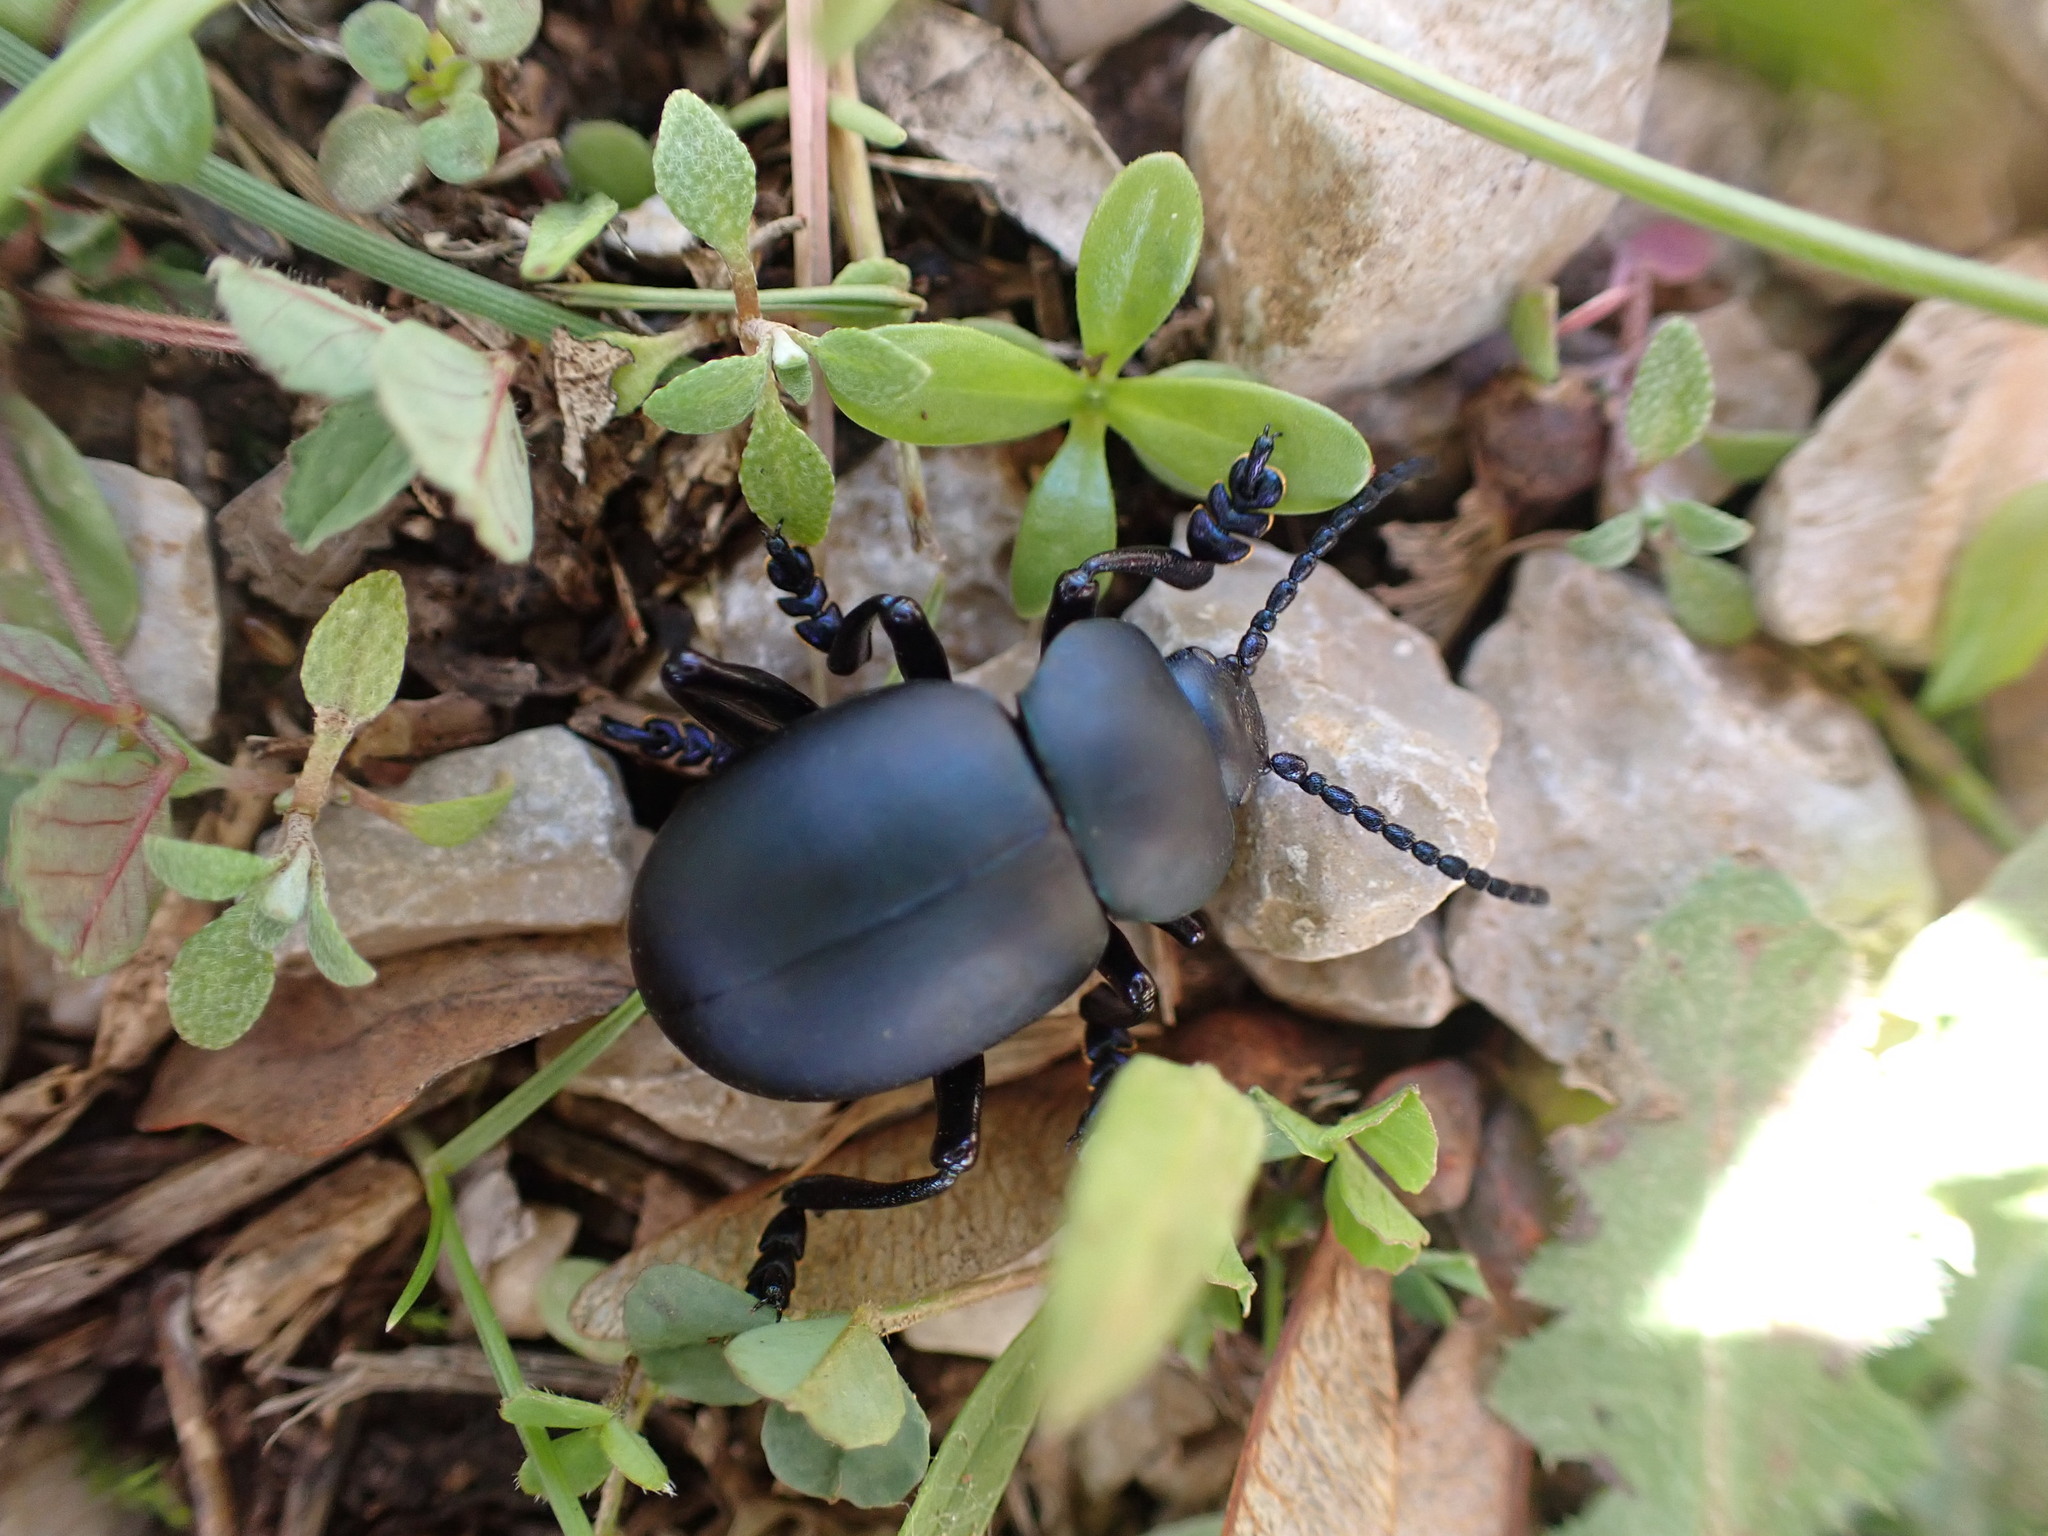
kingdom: Animalia
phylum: Arthropoda
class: Insecta
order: Coleoptera
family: Chrysomelidae
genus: Timarcha
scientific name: Timarcha tenebricosa
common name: Bloody-nosed beetle
